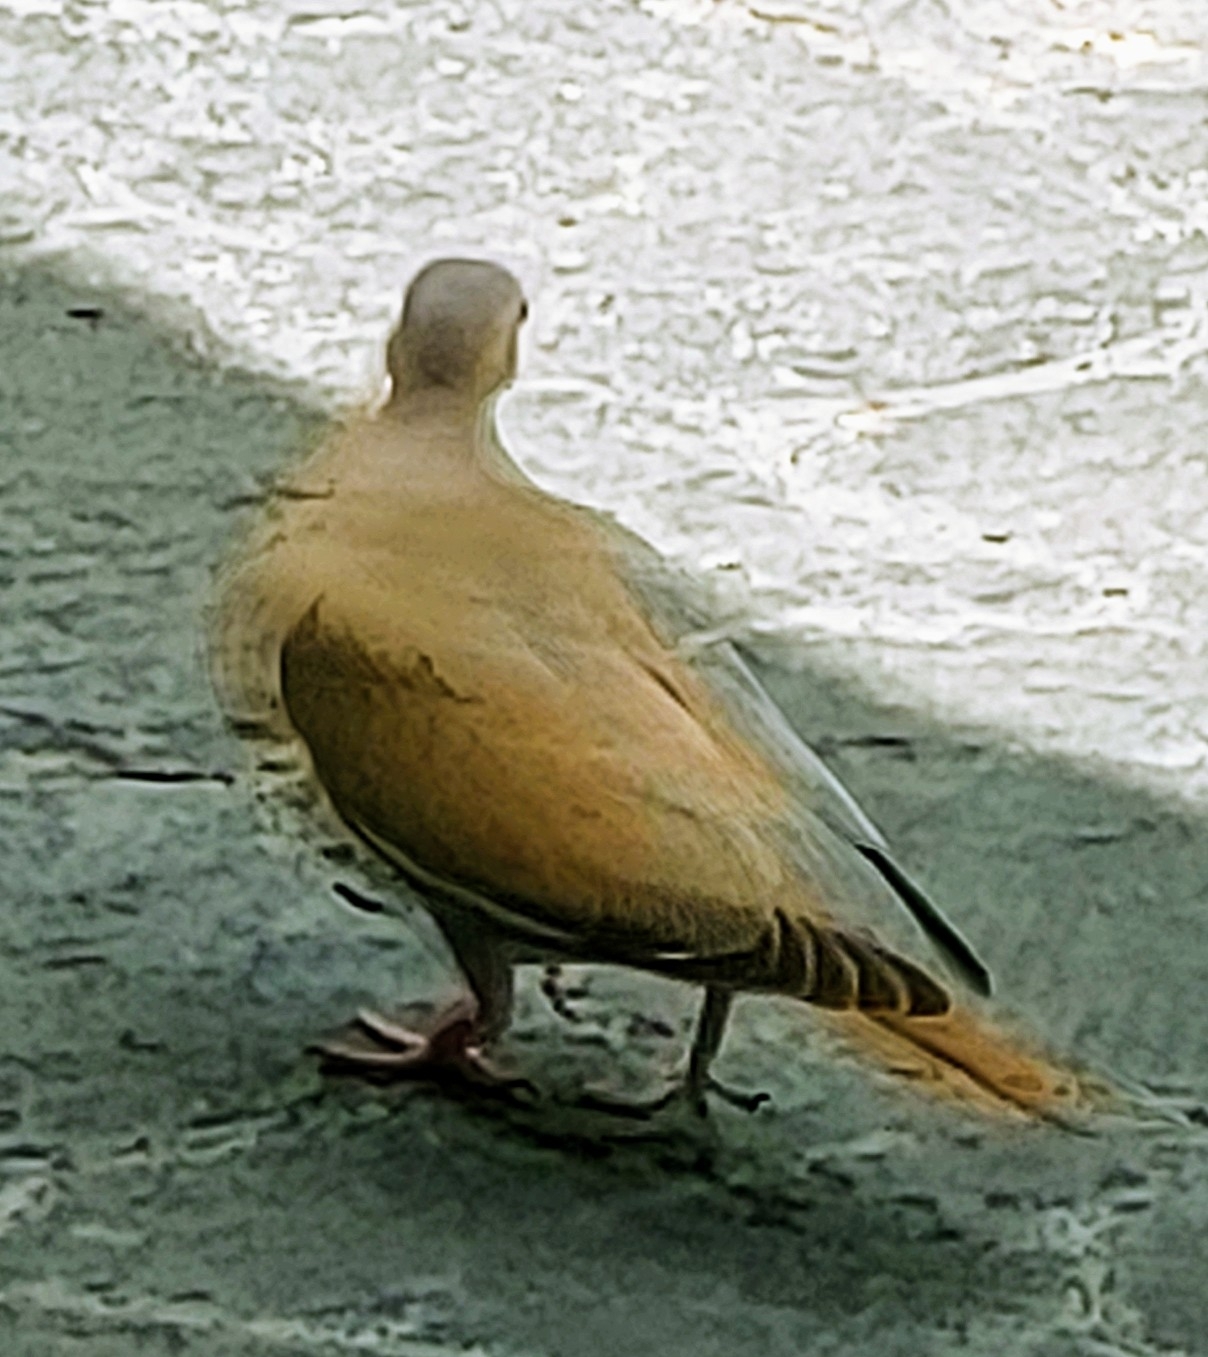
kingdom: Animalia
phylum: Chordata
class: Aves
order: Columbiformes
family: Columbidae
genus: Zenaida
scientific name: Zenaida asiatica
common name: White-winged dove
